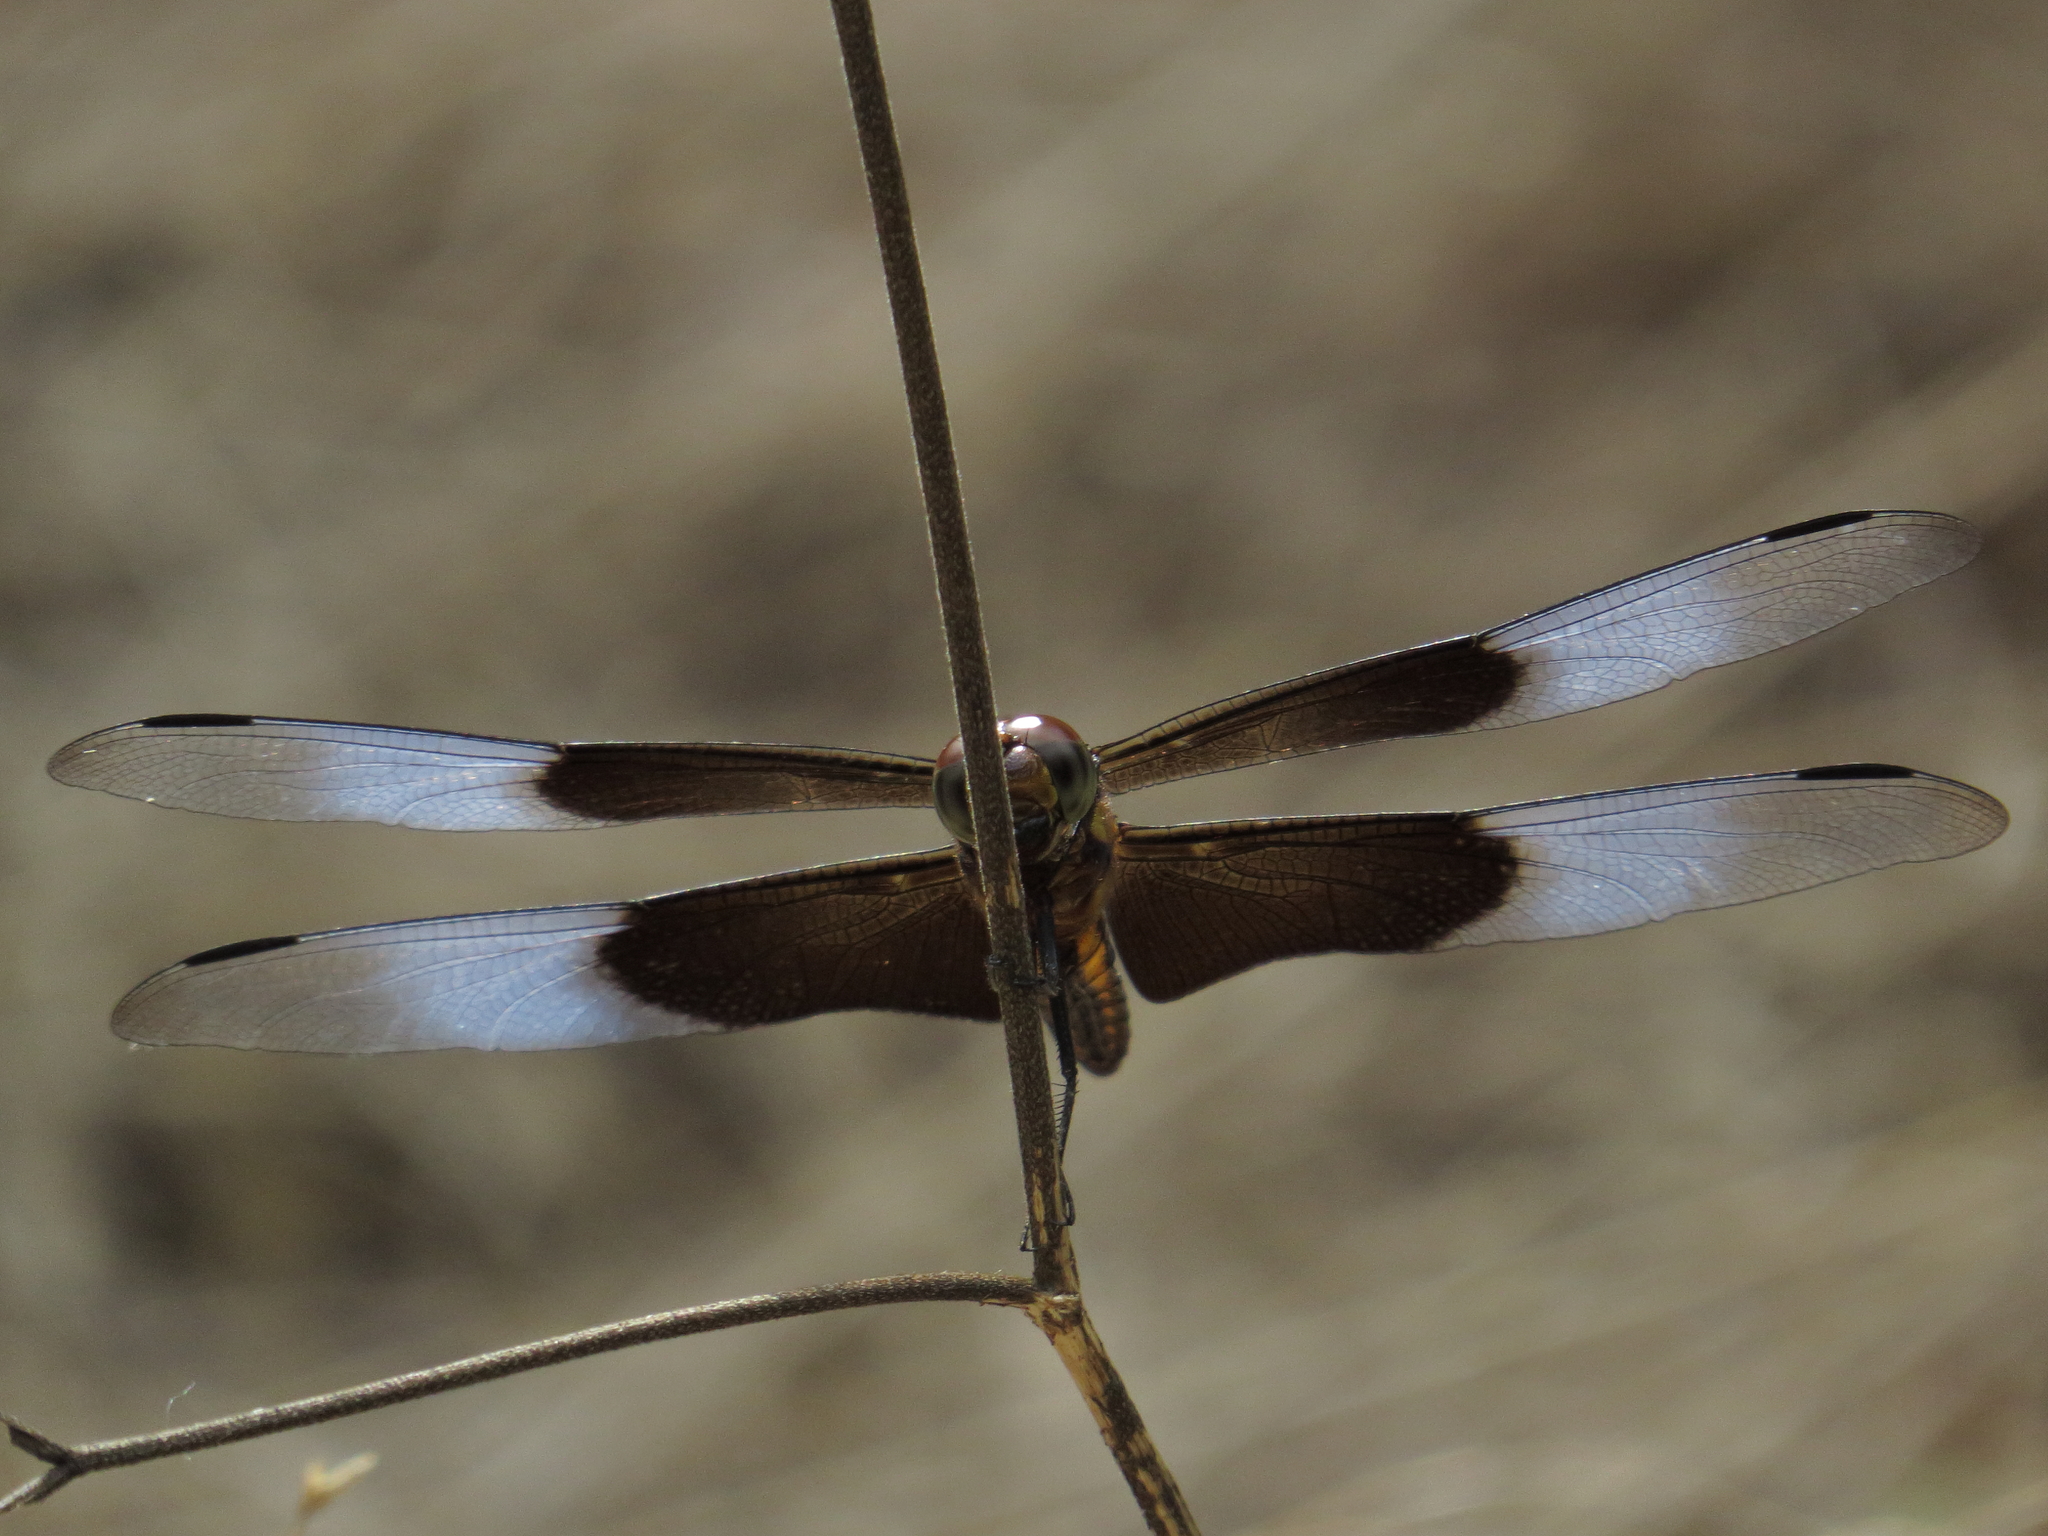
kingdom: Animalia
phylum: Arthropoda
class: Insecta
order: Odonata
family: Libellulidae
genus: Libellula
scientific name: Libellula luctuosa
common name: Widow skimmer
